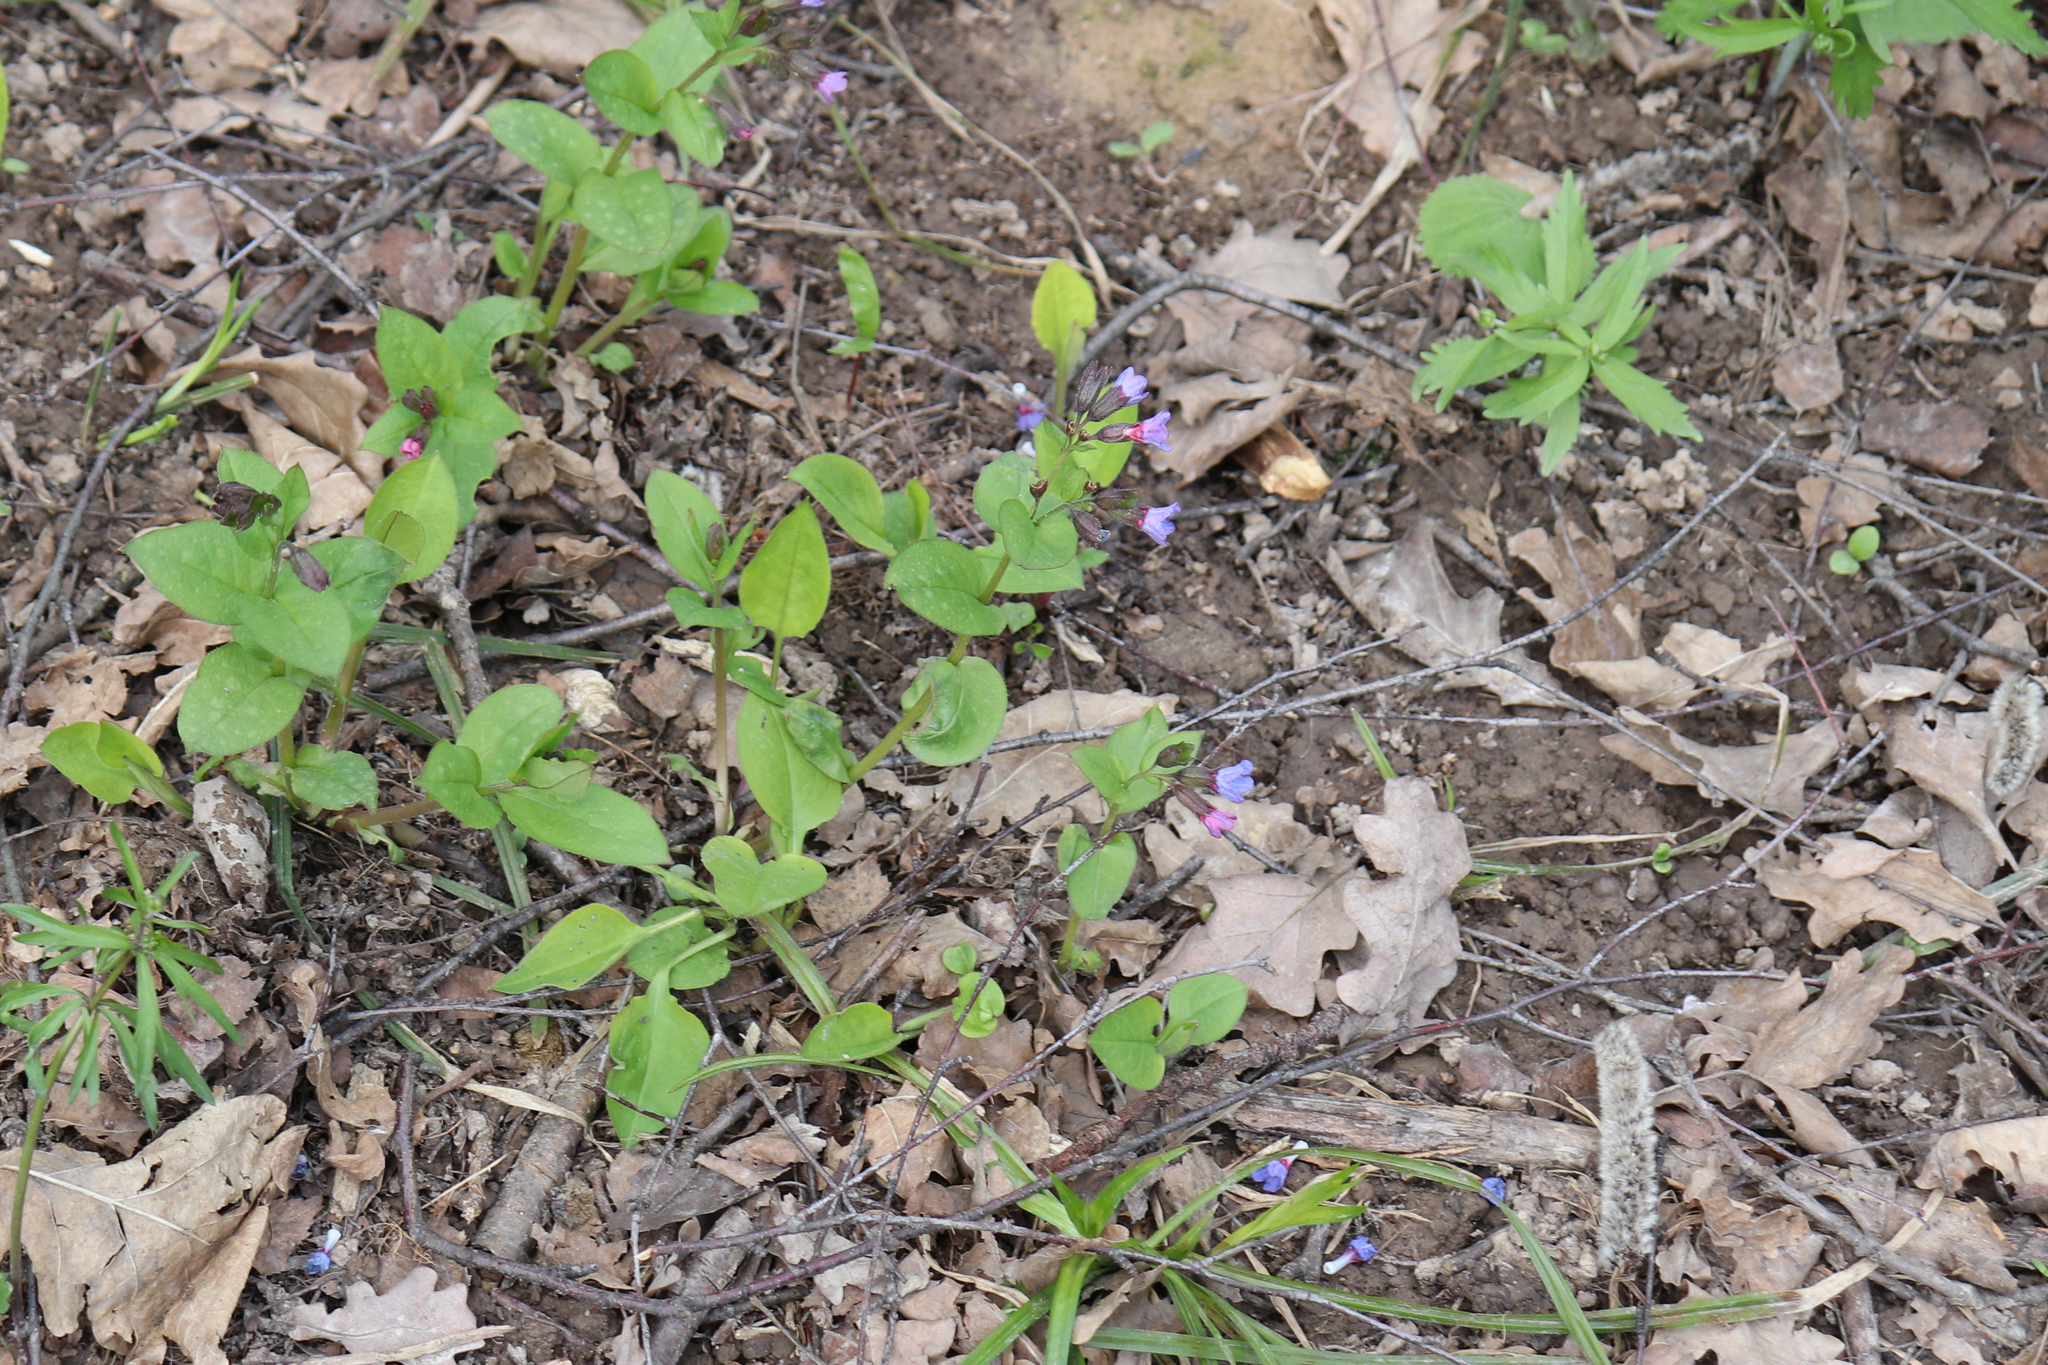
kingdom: Plantae
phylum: Tracheophyta
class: Magnoliopsida
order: Boraginales
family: Boraginaceae
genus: Pulmonaria
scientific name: Pulmonaria obscura
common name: Suffolk lungwort
